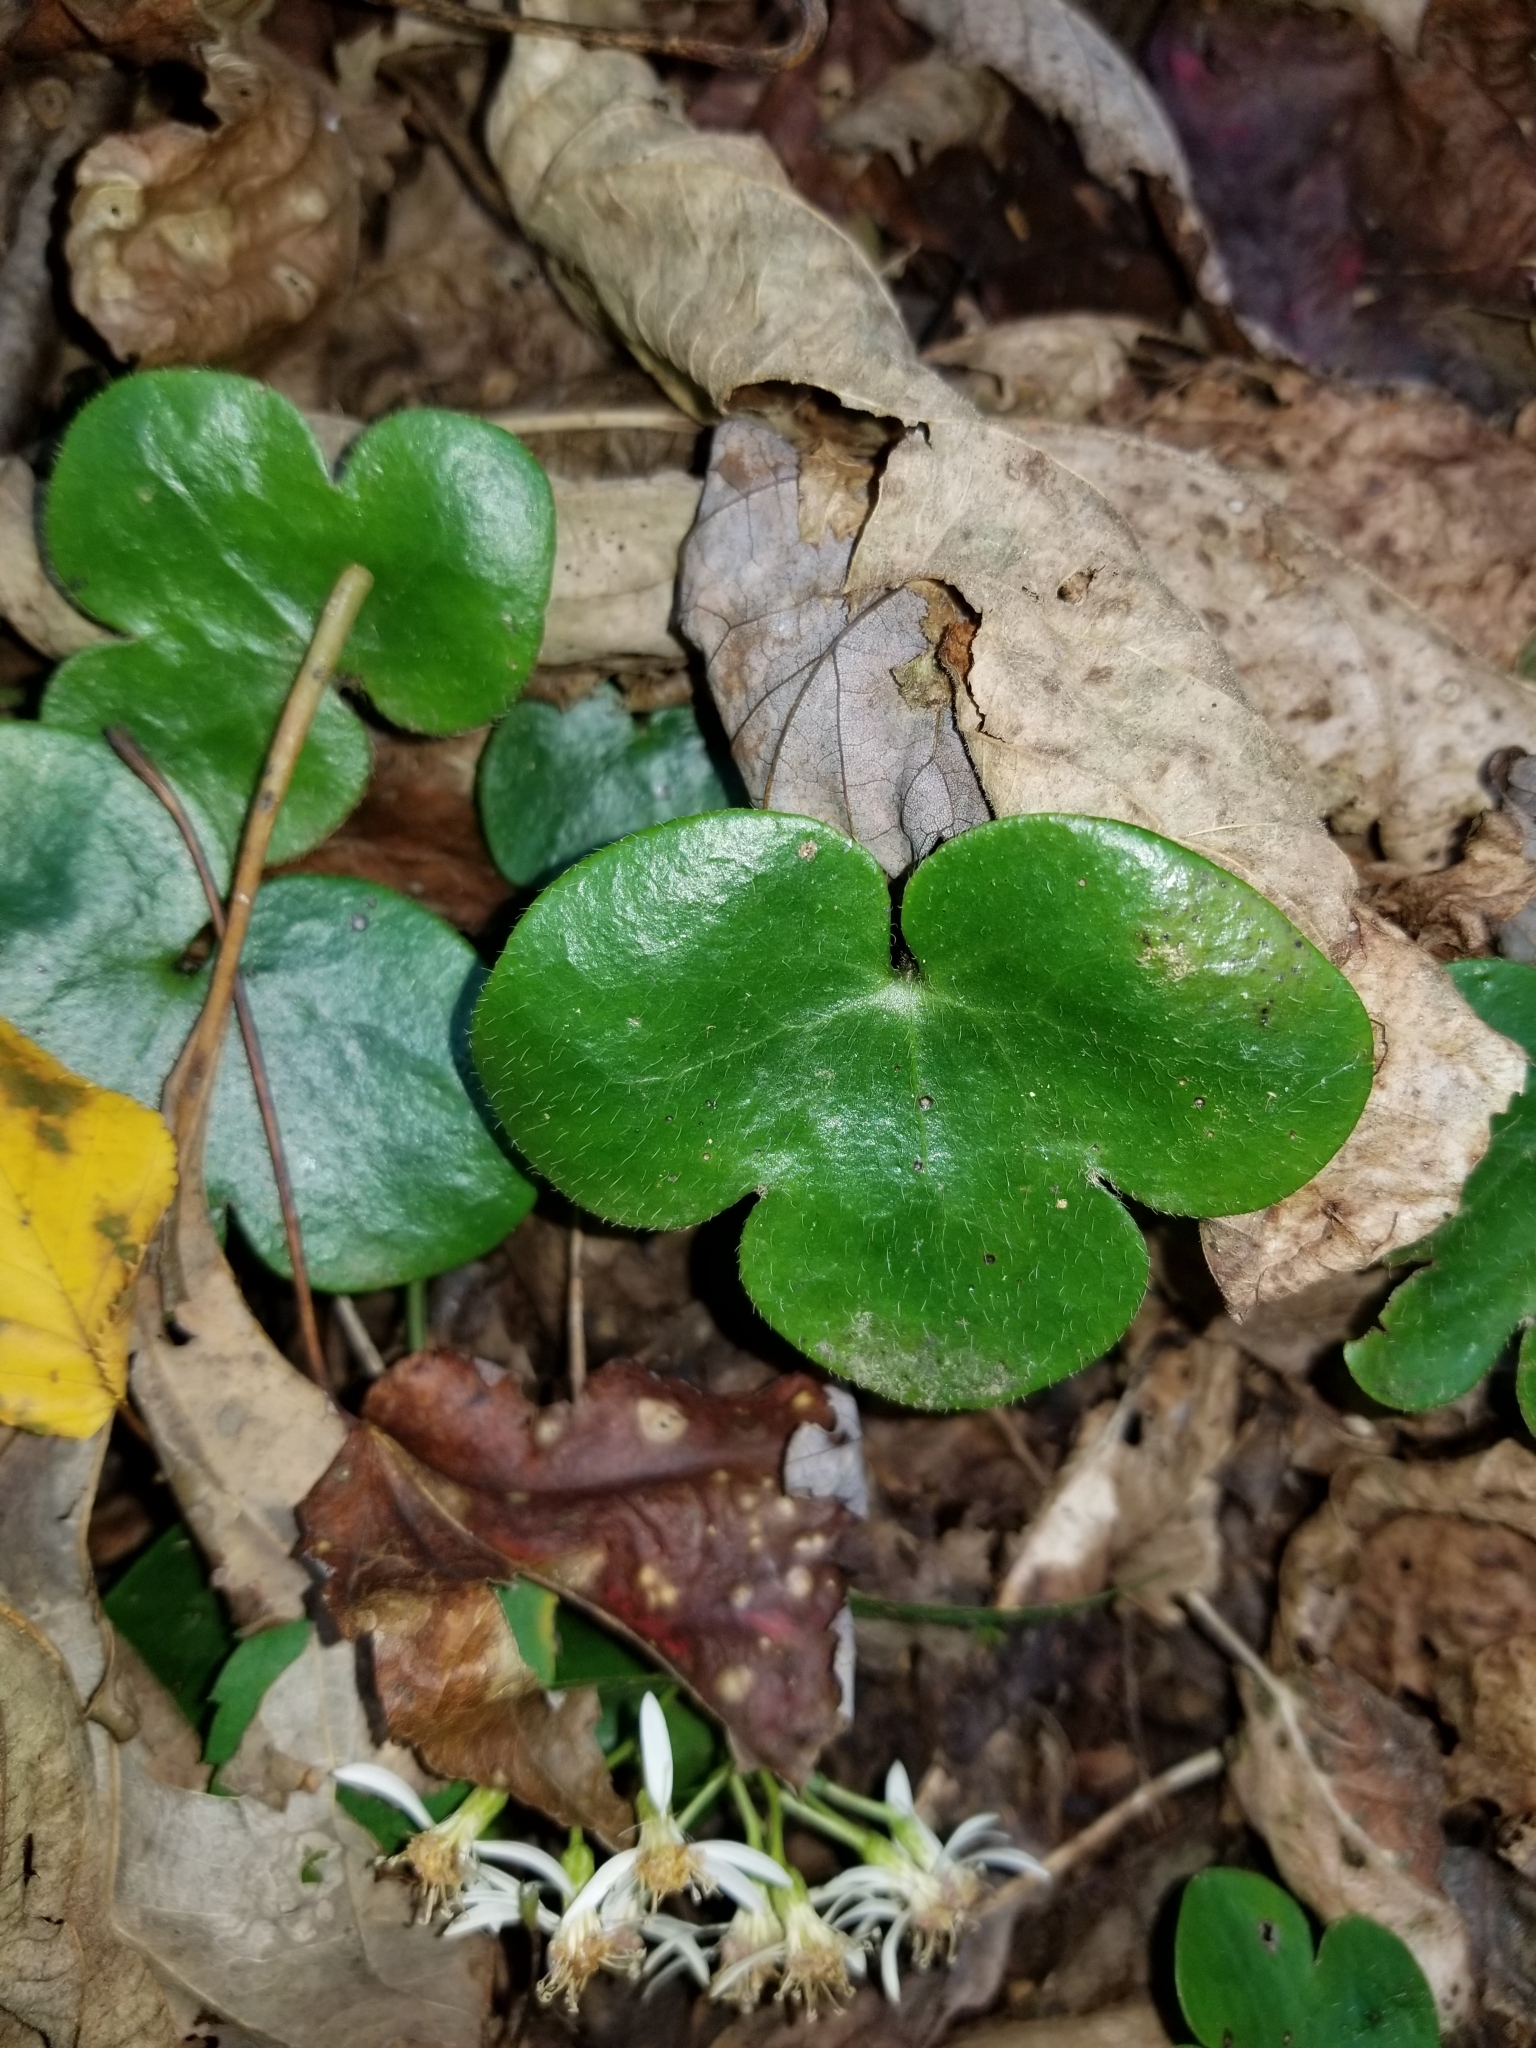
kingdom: Plantae
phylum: Tracheophyta
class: Magnoliopsida
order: Ranunculales
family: Ranunculaceae
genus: Hepatica
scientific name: Hepatica americana
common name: American hepatica
